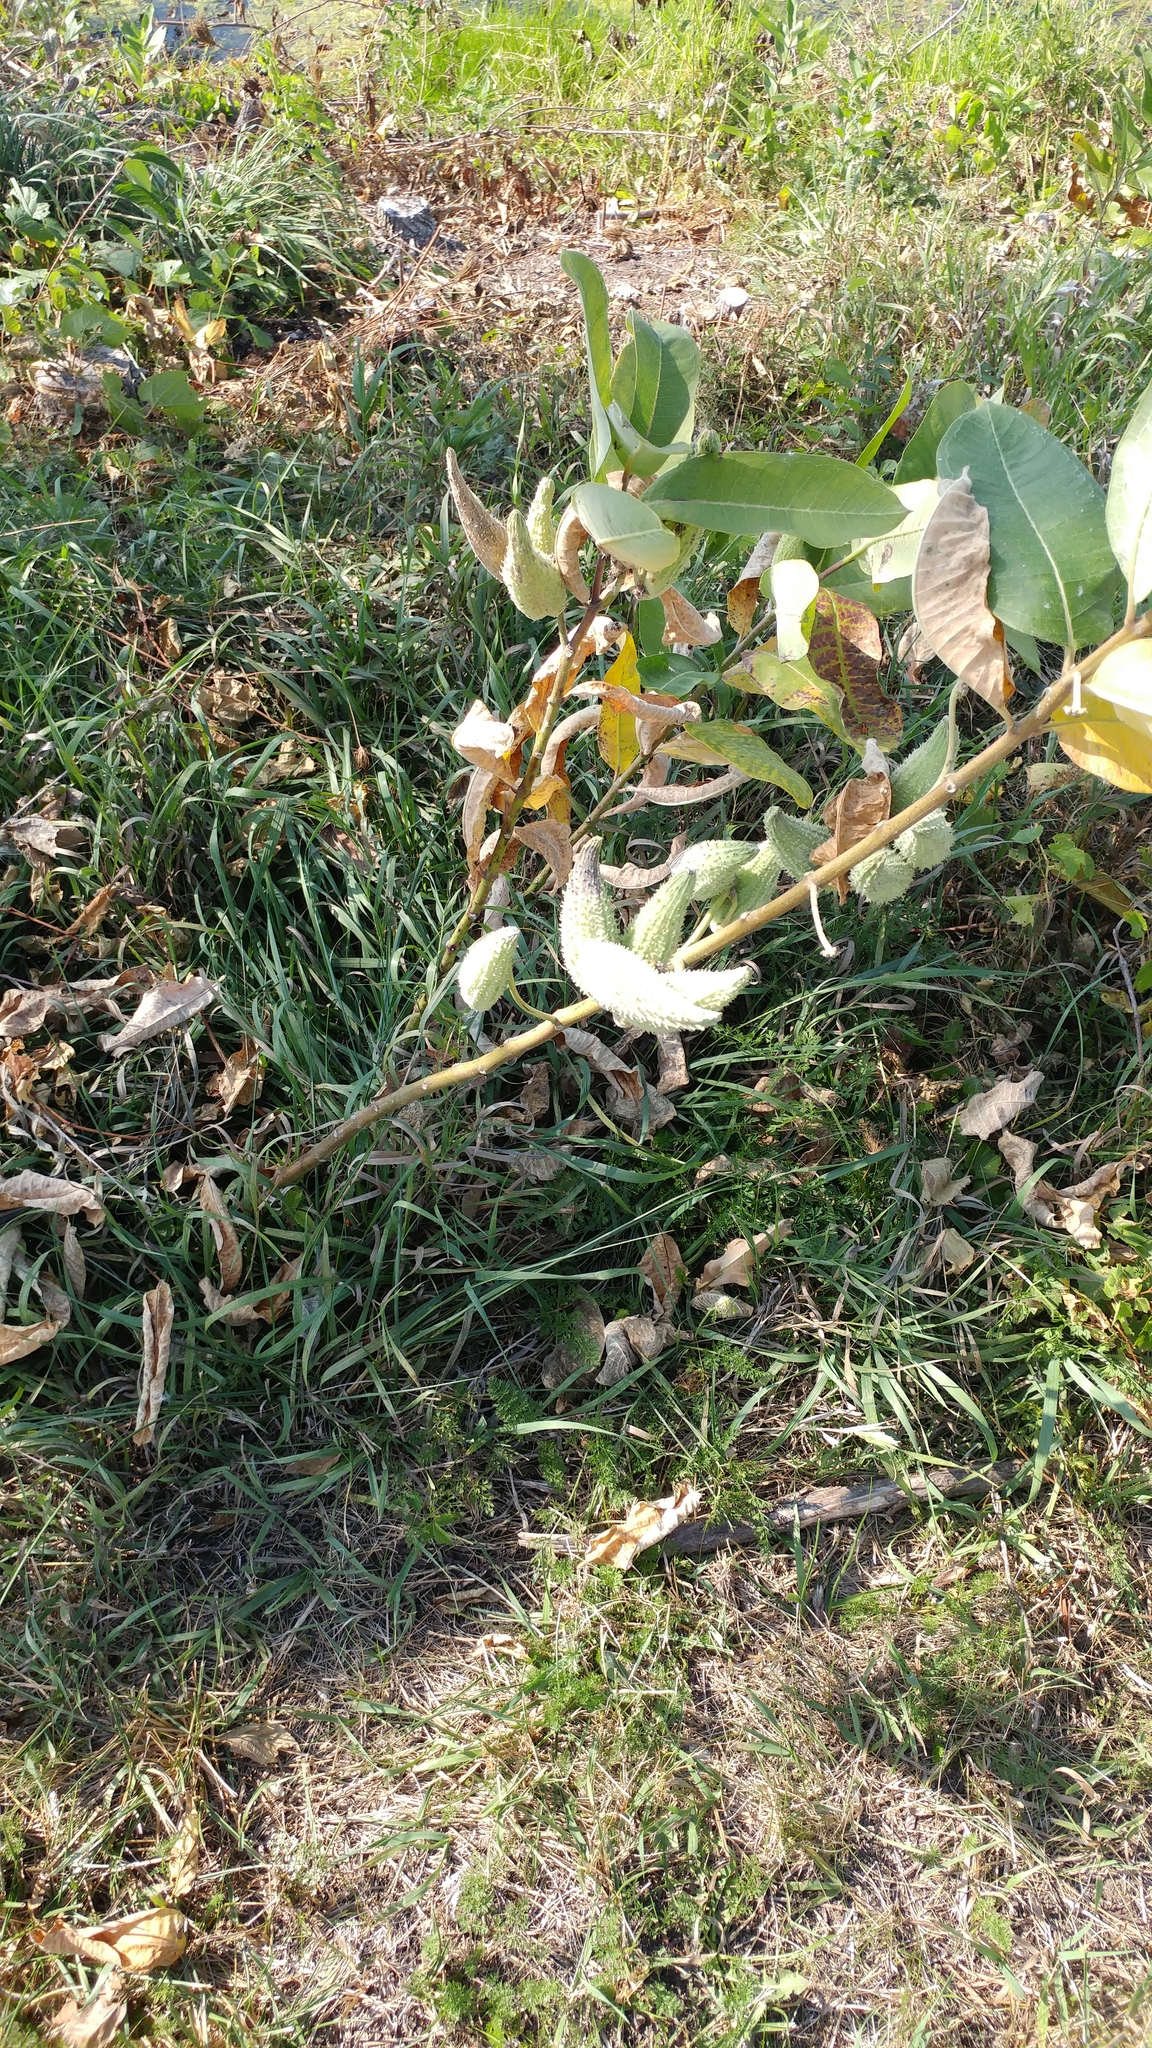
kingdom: Plantae
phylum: Tracheophyta
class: Magnoliopsida
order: Gentianales
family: Apocynaceae
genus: Asclepias
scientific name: Asclepias syriaca
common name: Common milkweed
